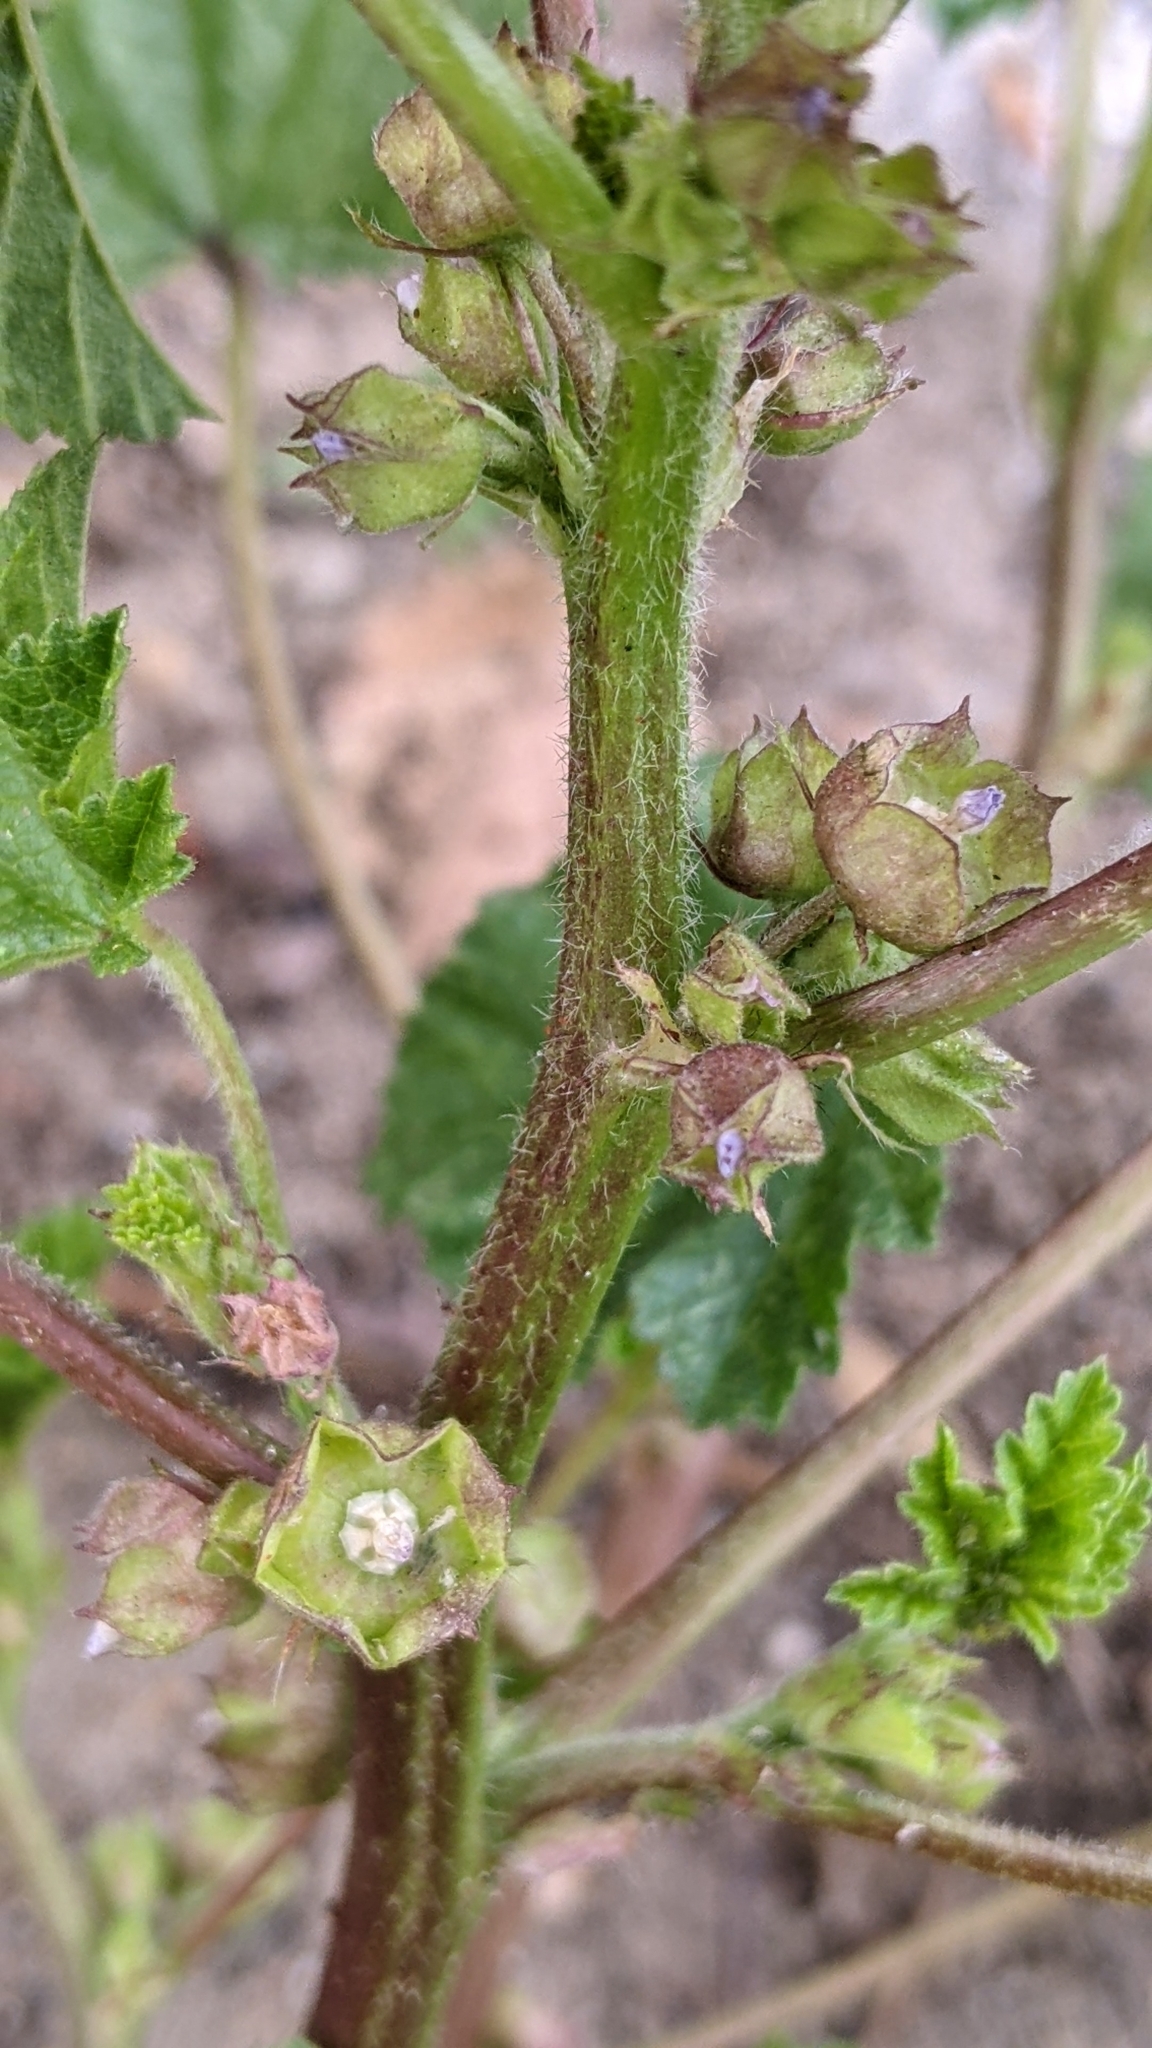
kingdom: Plantae
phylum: Tracheophyta
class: Magnoliopsida
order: Malvales
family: Malvaceae
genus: Malva
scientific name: Malva parviflora
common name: Least mallow
